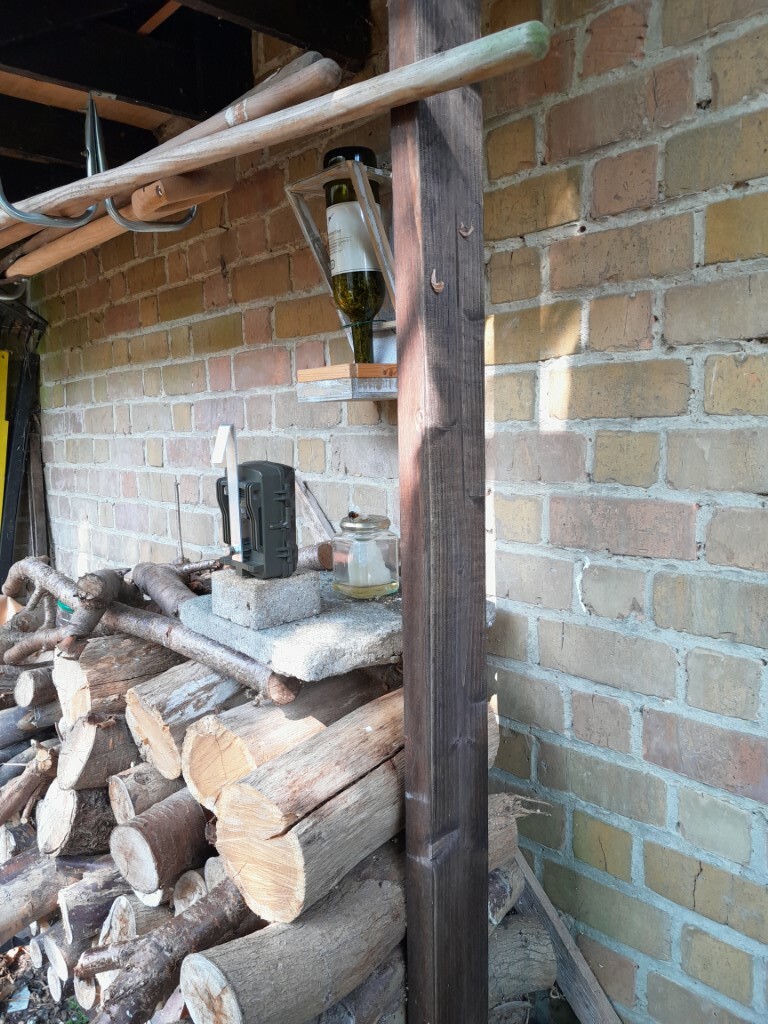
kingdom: Animalia
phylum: Arthropoda
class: Insecta
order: Hymenoptera
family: Vespidae
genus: Vespa
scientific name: Vespa velutina
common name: Asian hornet
